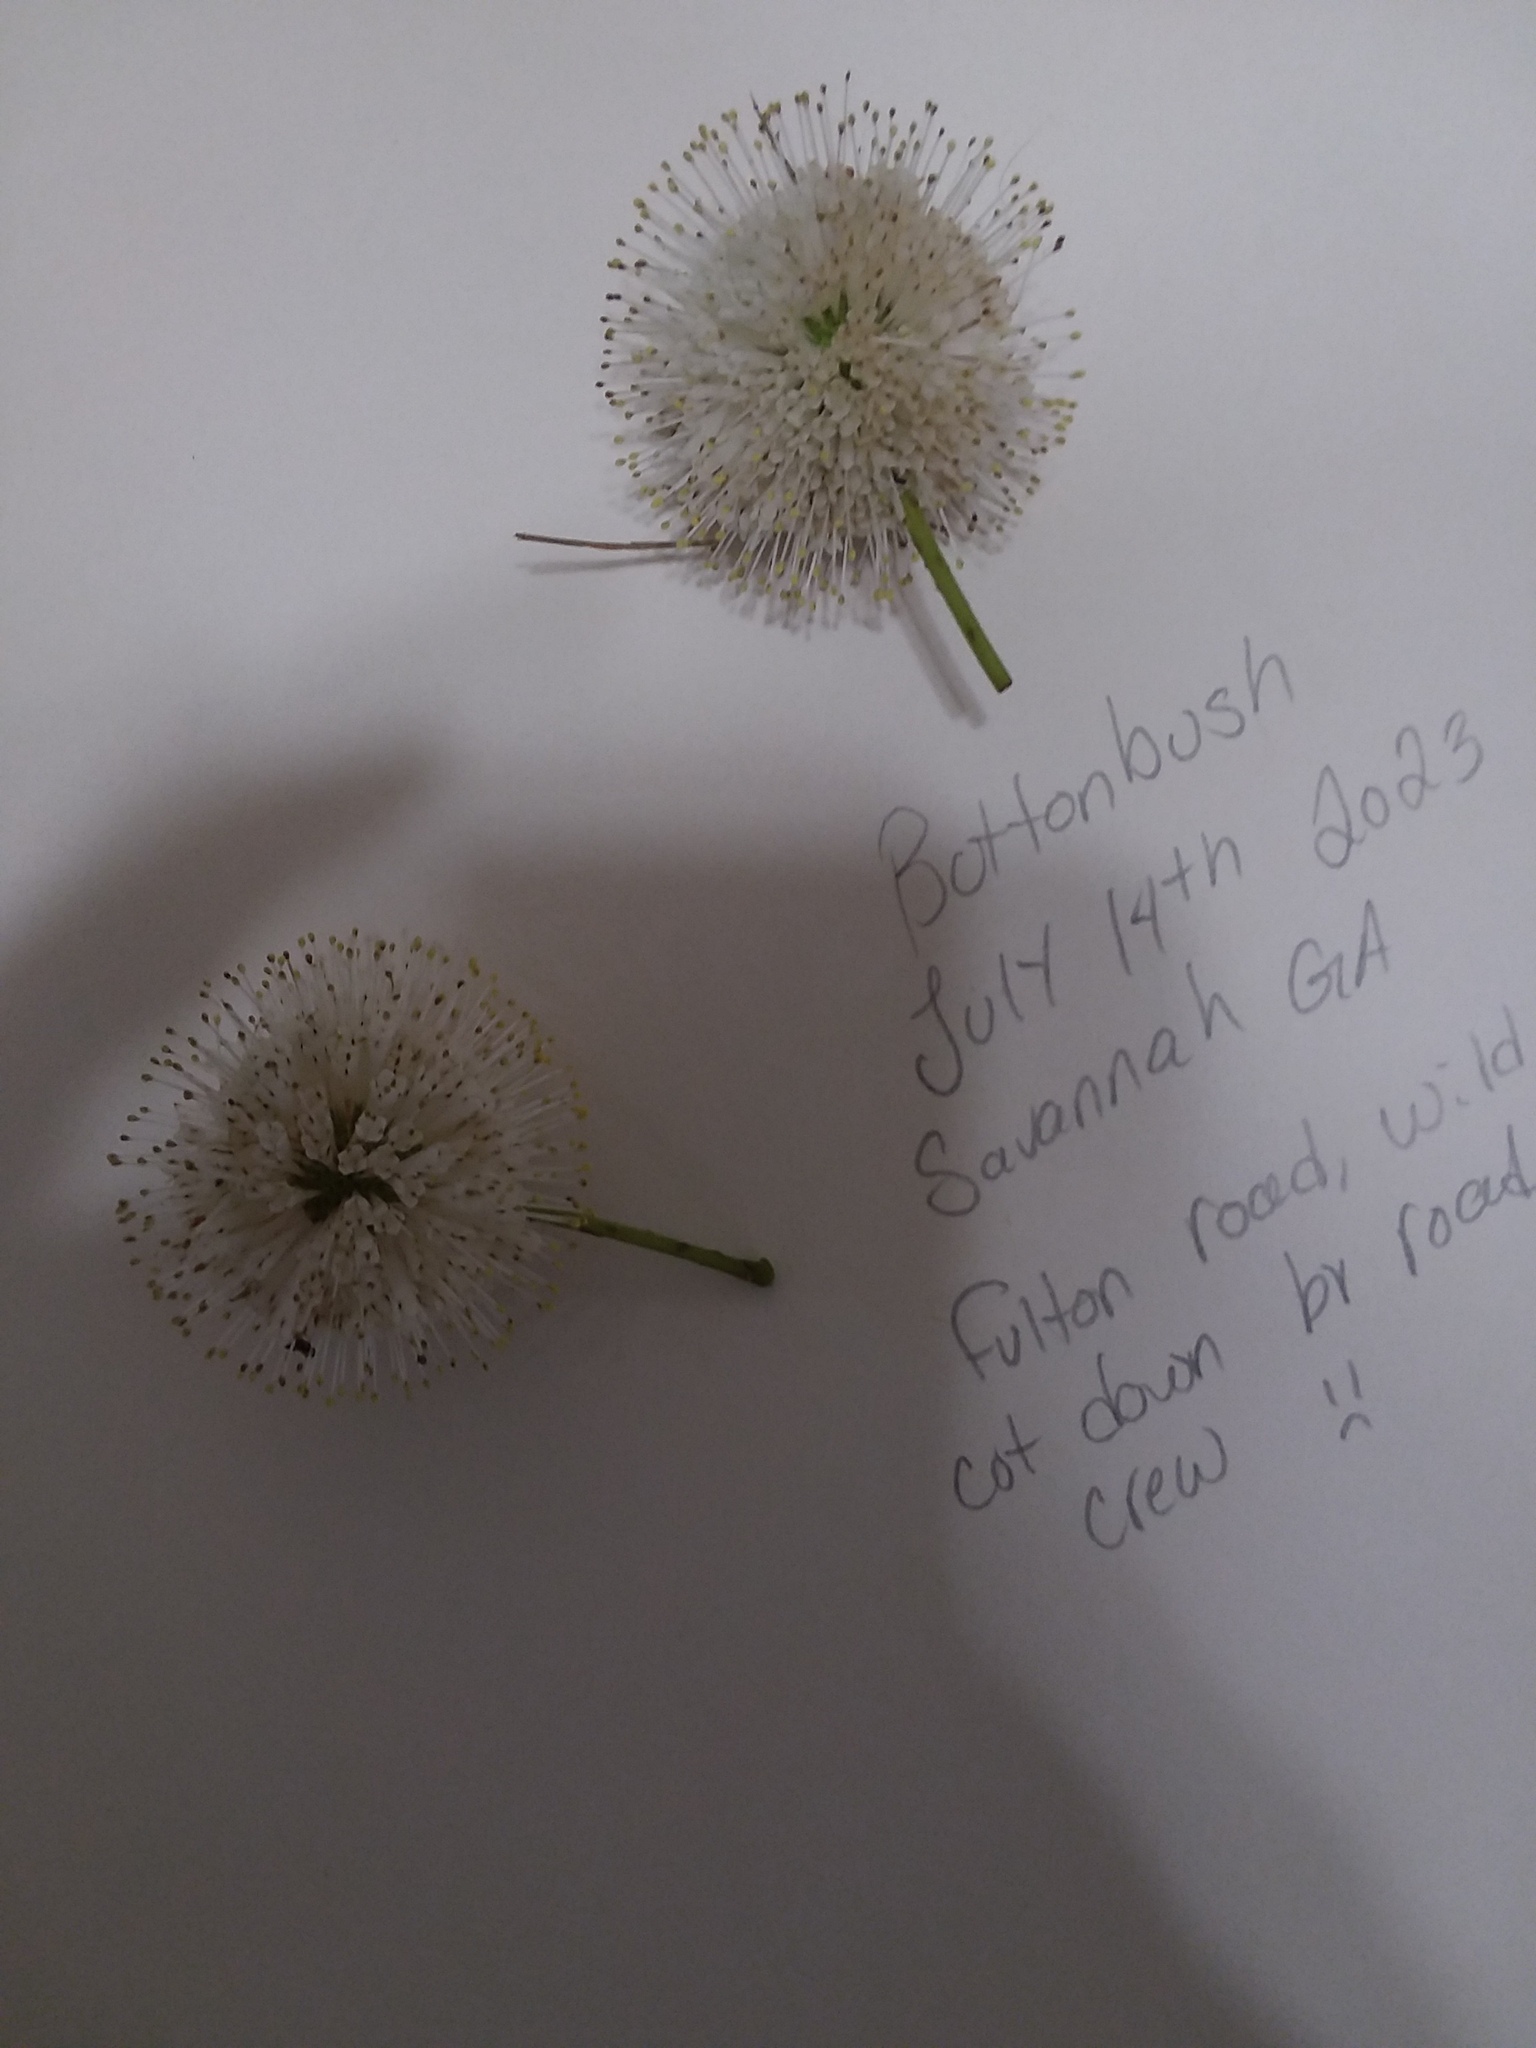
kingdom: Plantae
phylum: Tracheophyta
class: Magnoliopsida
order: Gentianales
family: Rubiaceae
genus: Cephalanthus
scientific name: Cephalanthus occidentalis
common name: Button-willow
